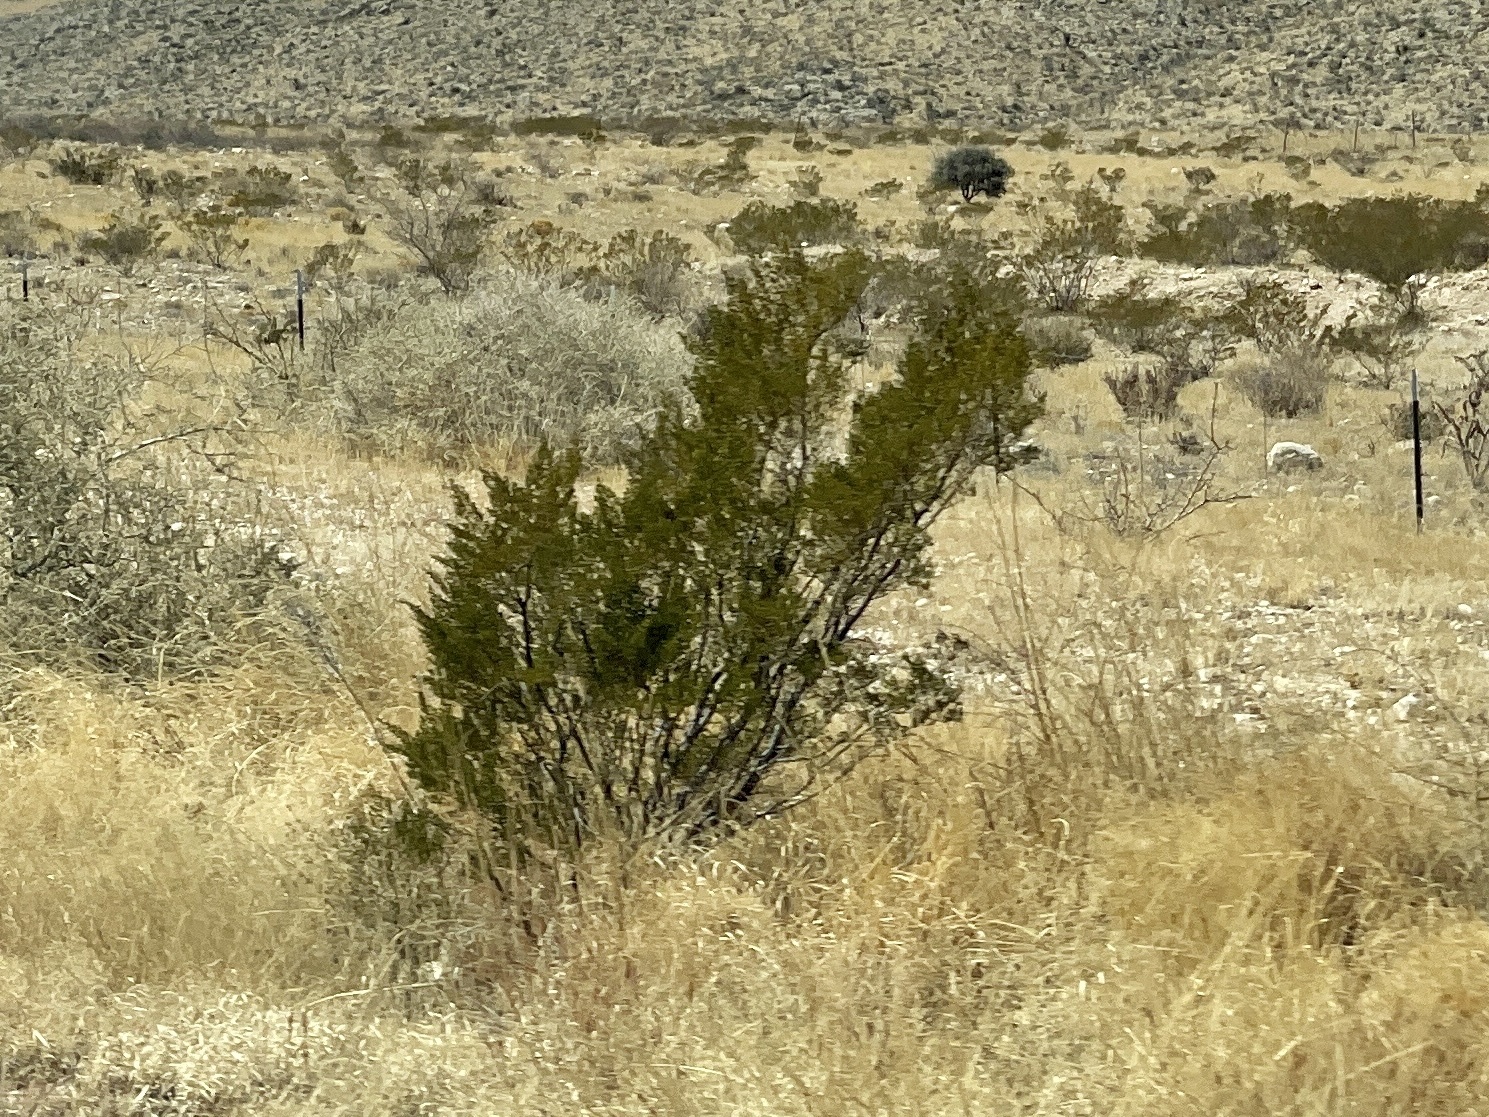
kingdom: Plantae
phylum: Tracheophyta
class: Magnoliopsida
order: Zygophyllales
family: Zygophyllaceae
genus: Larrea
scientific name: Larrea tridentata
